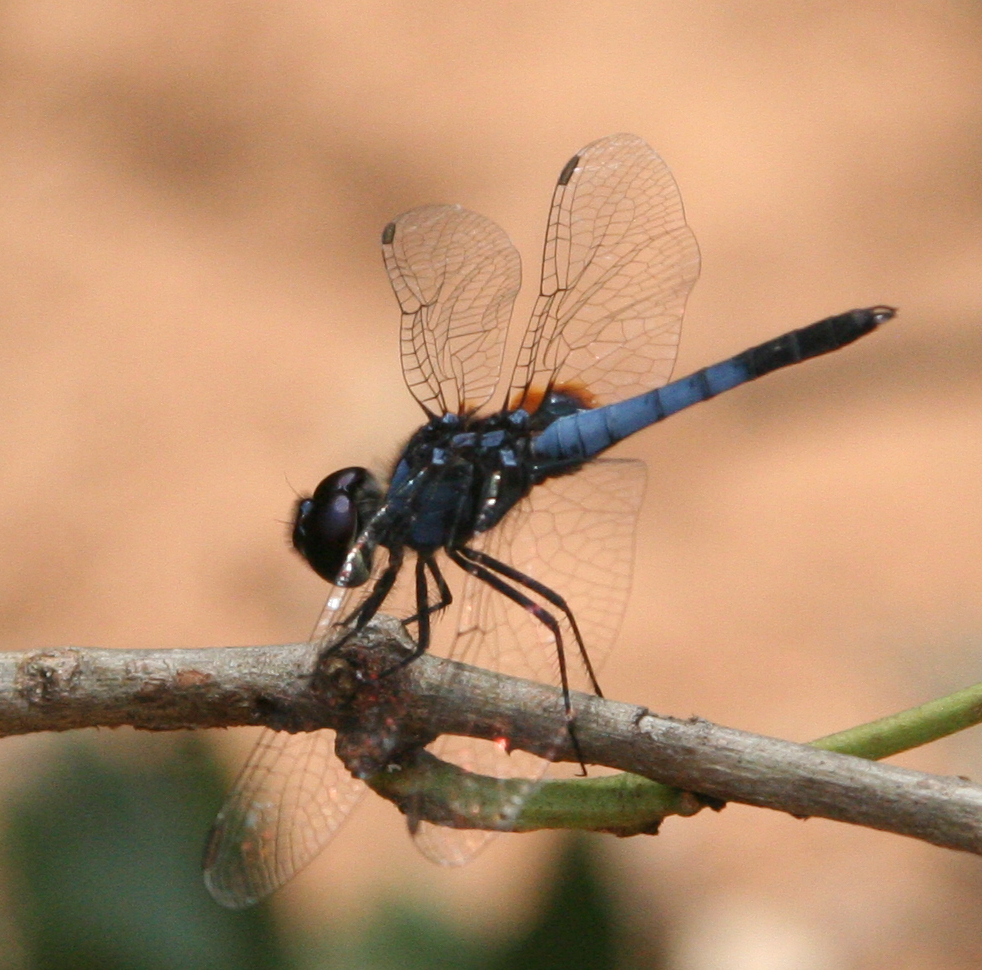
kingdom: Animalia
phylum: Arthropoda
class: Insecta
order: Odonata
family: Libellulidae
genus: Aethriamanta
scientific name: Aethriamanta aethra
